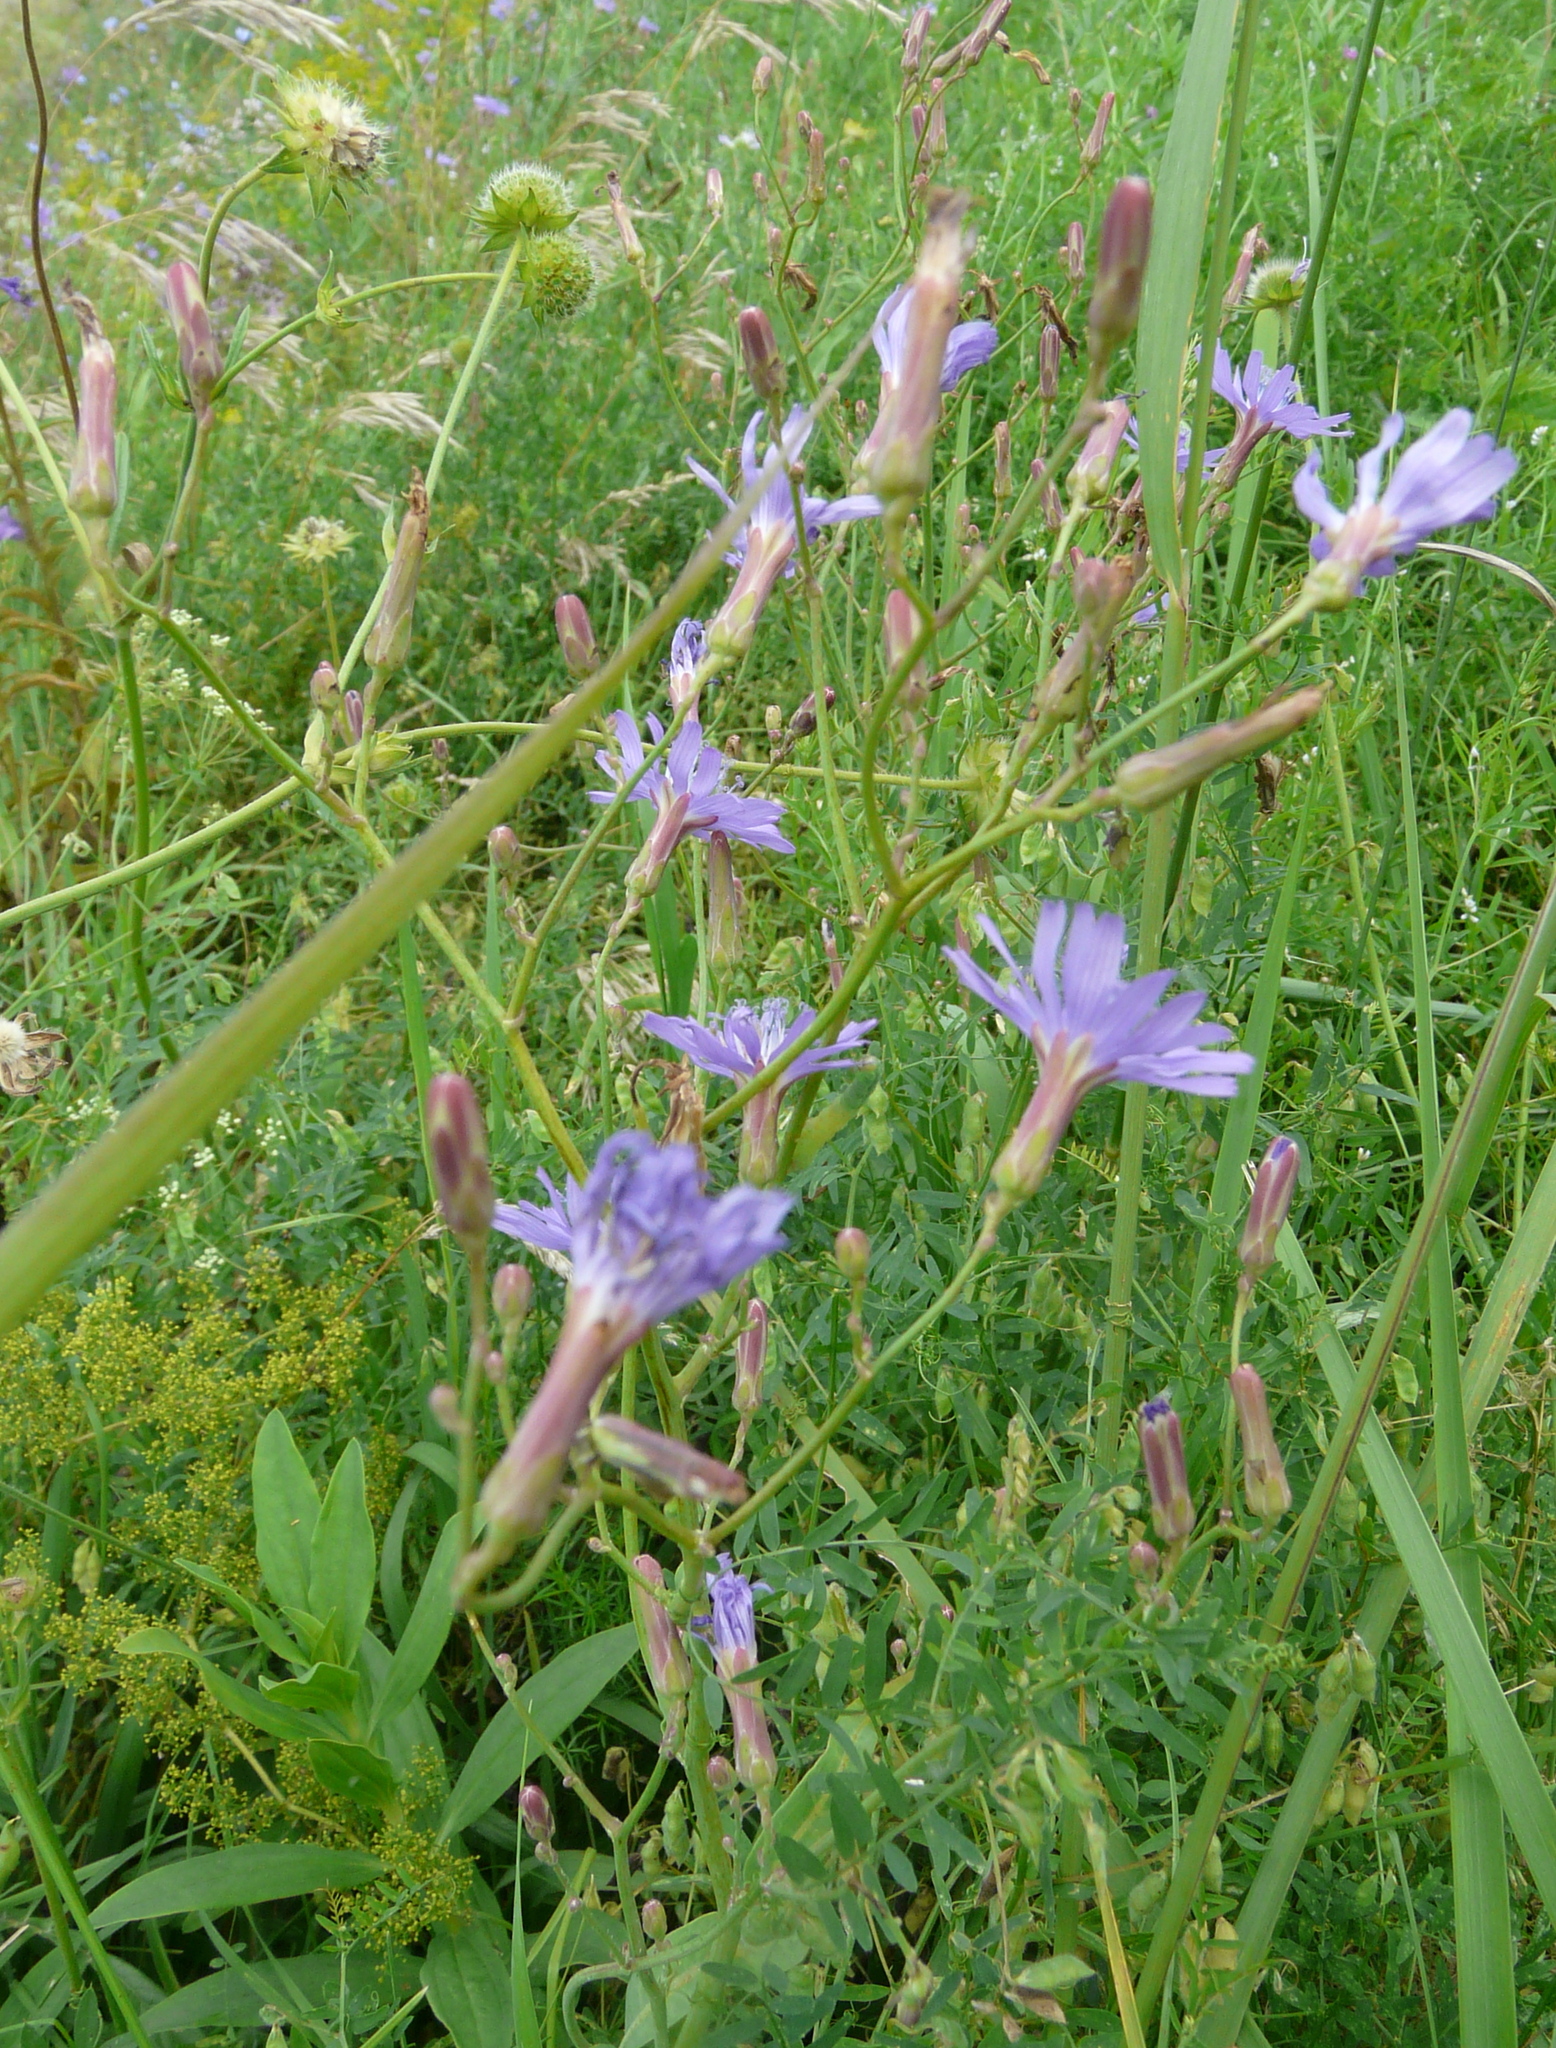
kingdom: Plantae
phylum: Tracheophyta
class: Magnoliopsida
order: Asterales
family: Asteraceae
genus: Lactuca
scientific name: Lactuca tatarica
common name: Blue lettuce
